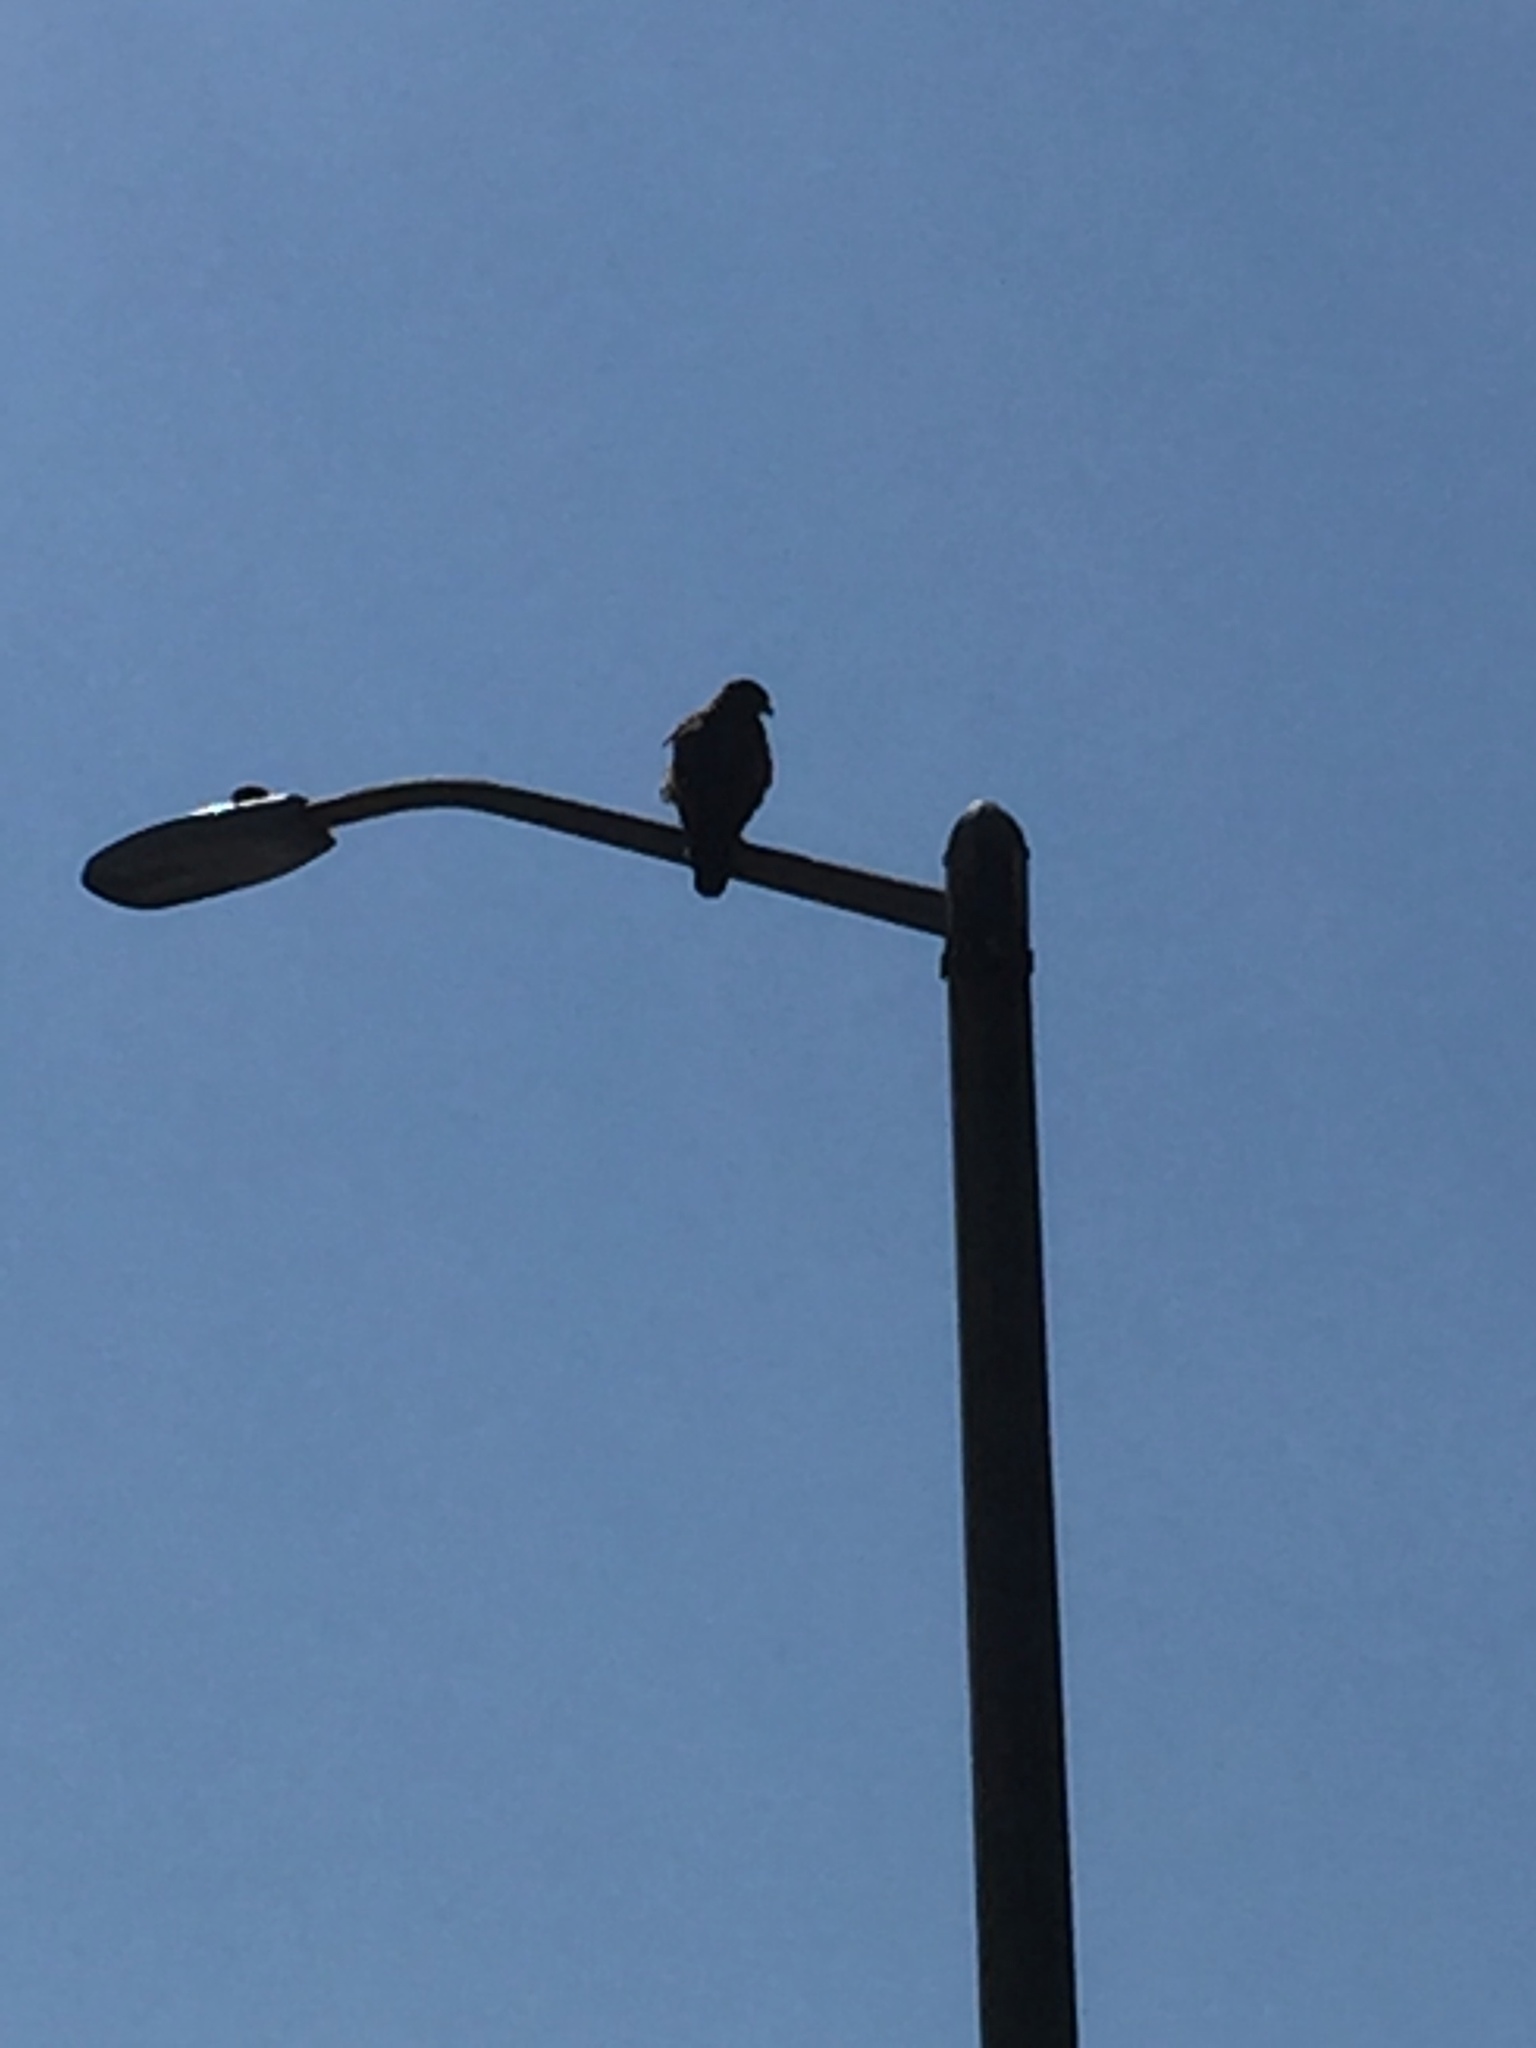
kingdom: Animalia
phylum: Chordata
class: Aves
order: Accipitriformes
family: Accipitridae
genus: Buteo
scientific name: Buteo jamaicensis
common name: Red-tailed hawk
